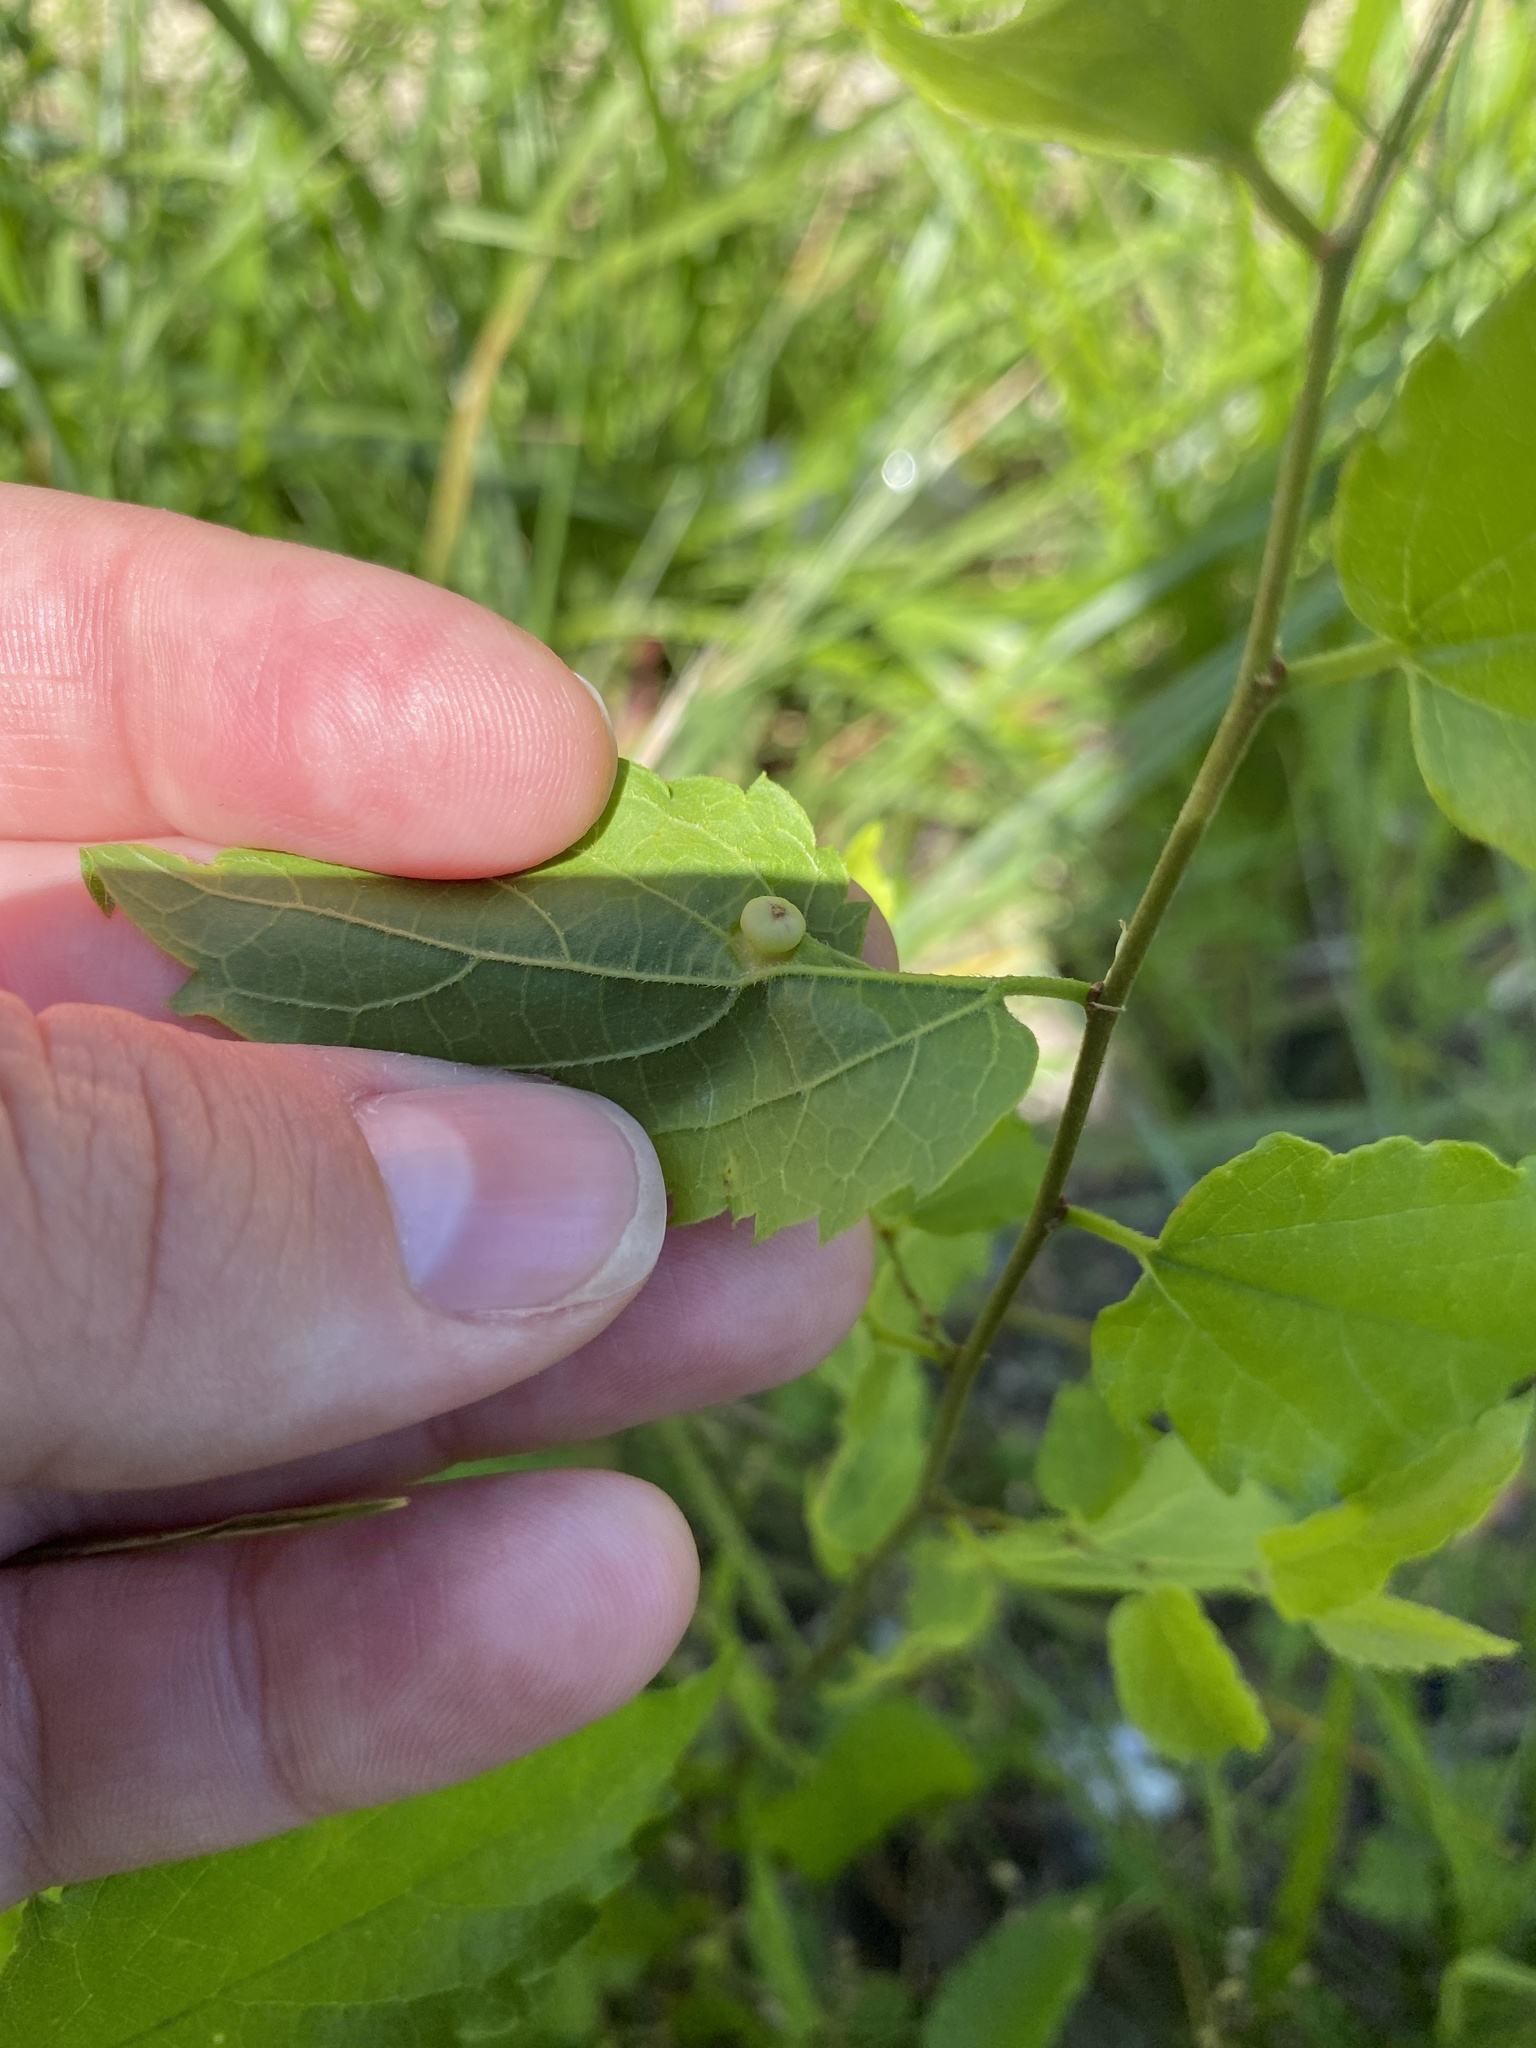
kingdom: Animalia
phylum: Arthropoda
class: Insecta
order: Hemiptera
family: Aphalaridae
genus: Pachypsylla
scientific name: Pachypsylla celtidismamma
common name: Hackberry nipplegall psyllid
